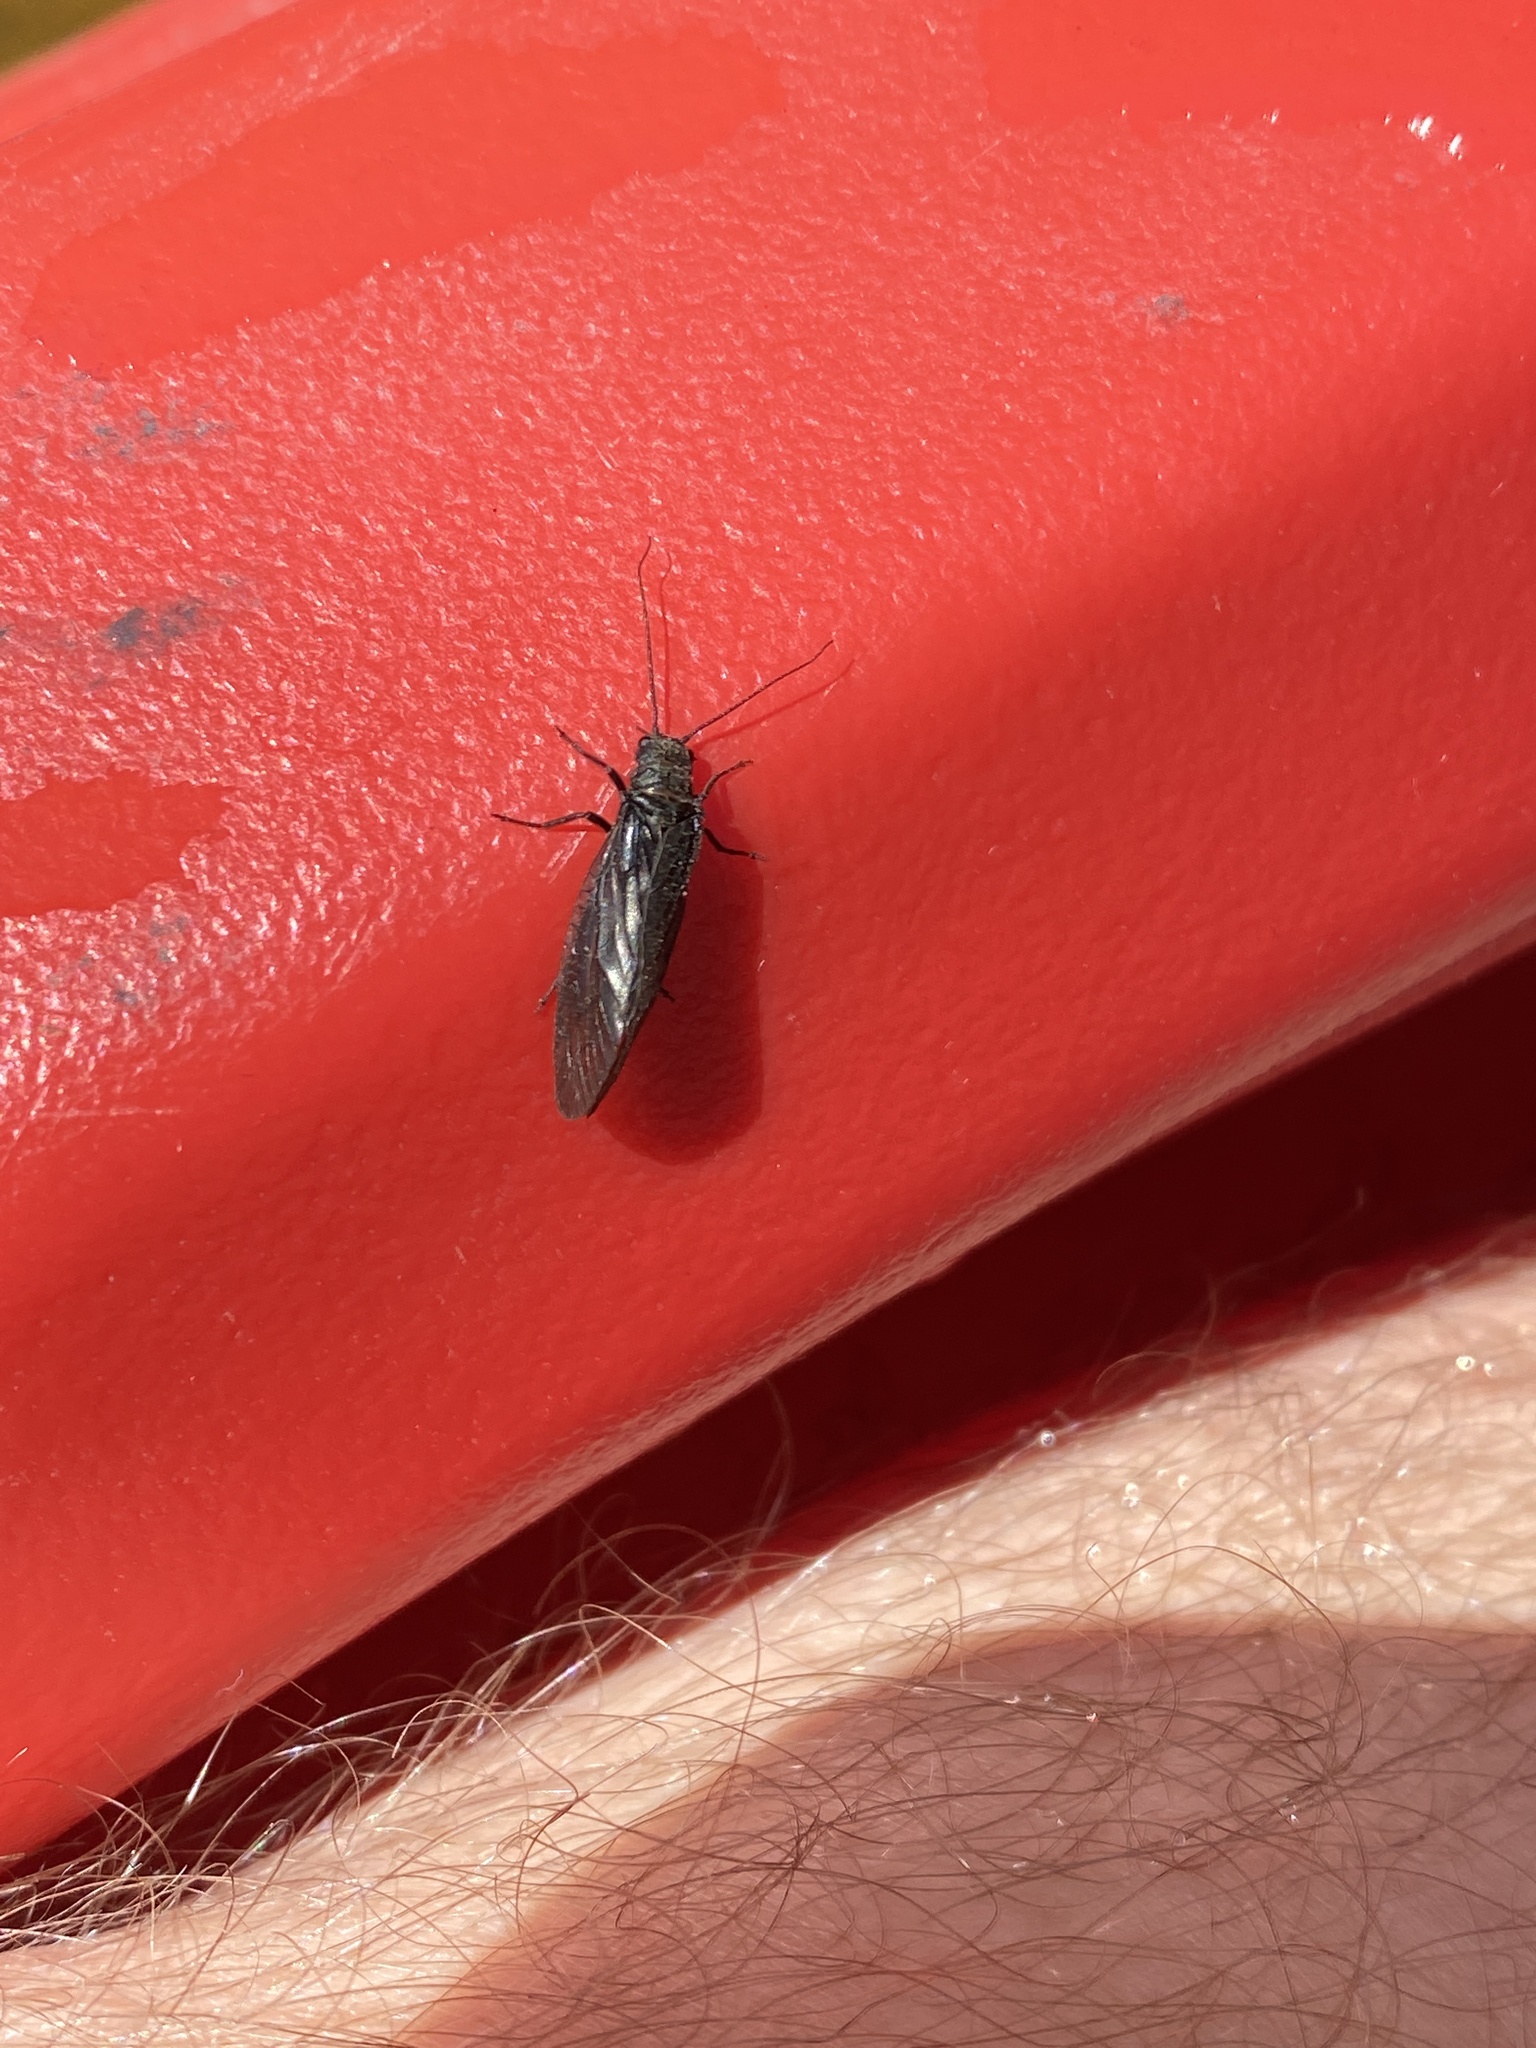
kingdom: Animalia
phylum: Arthropoda
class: Insecta
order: Megaloptera
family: Sialidae
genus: Sialis
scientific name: Sialis
